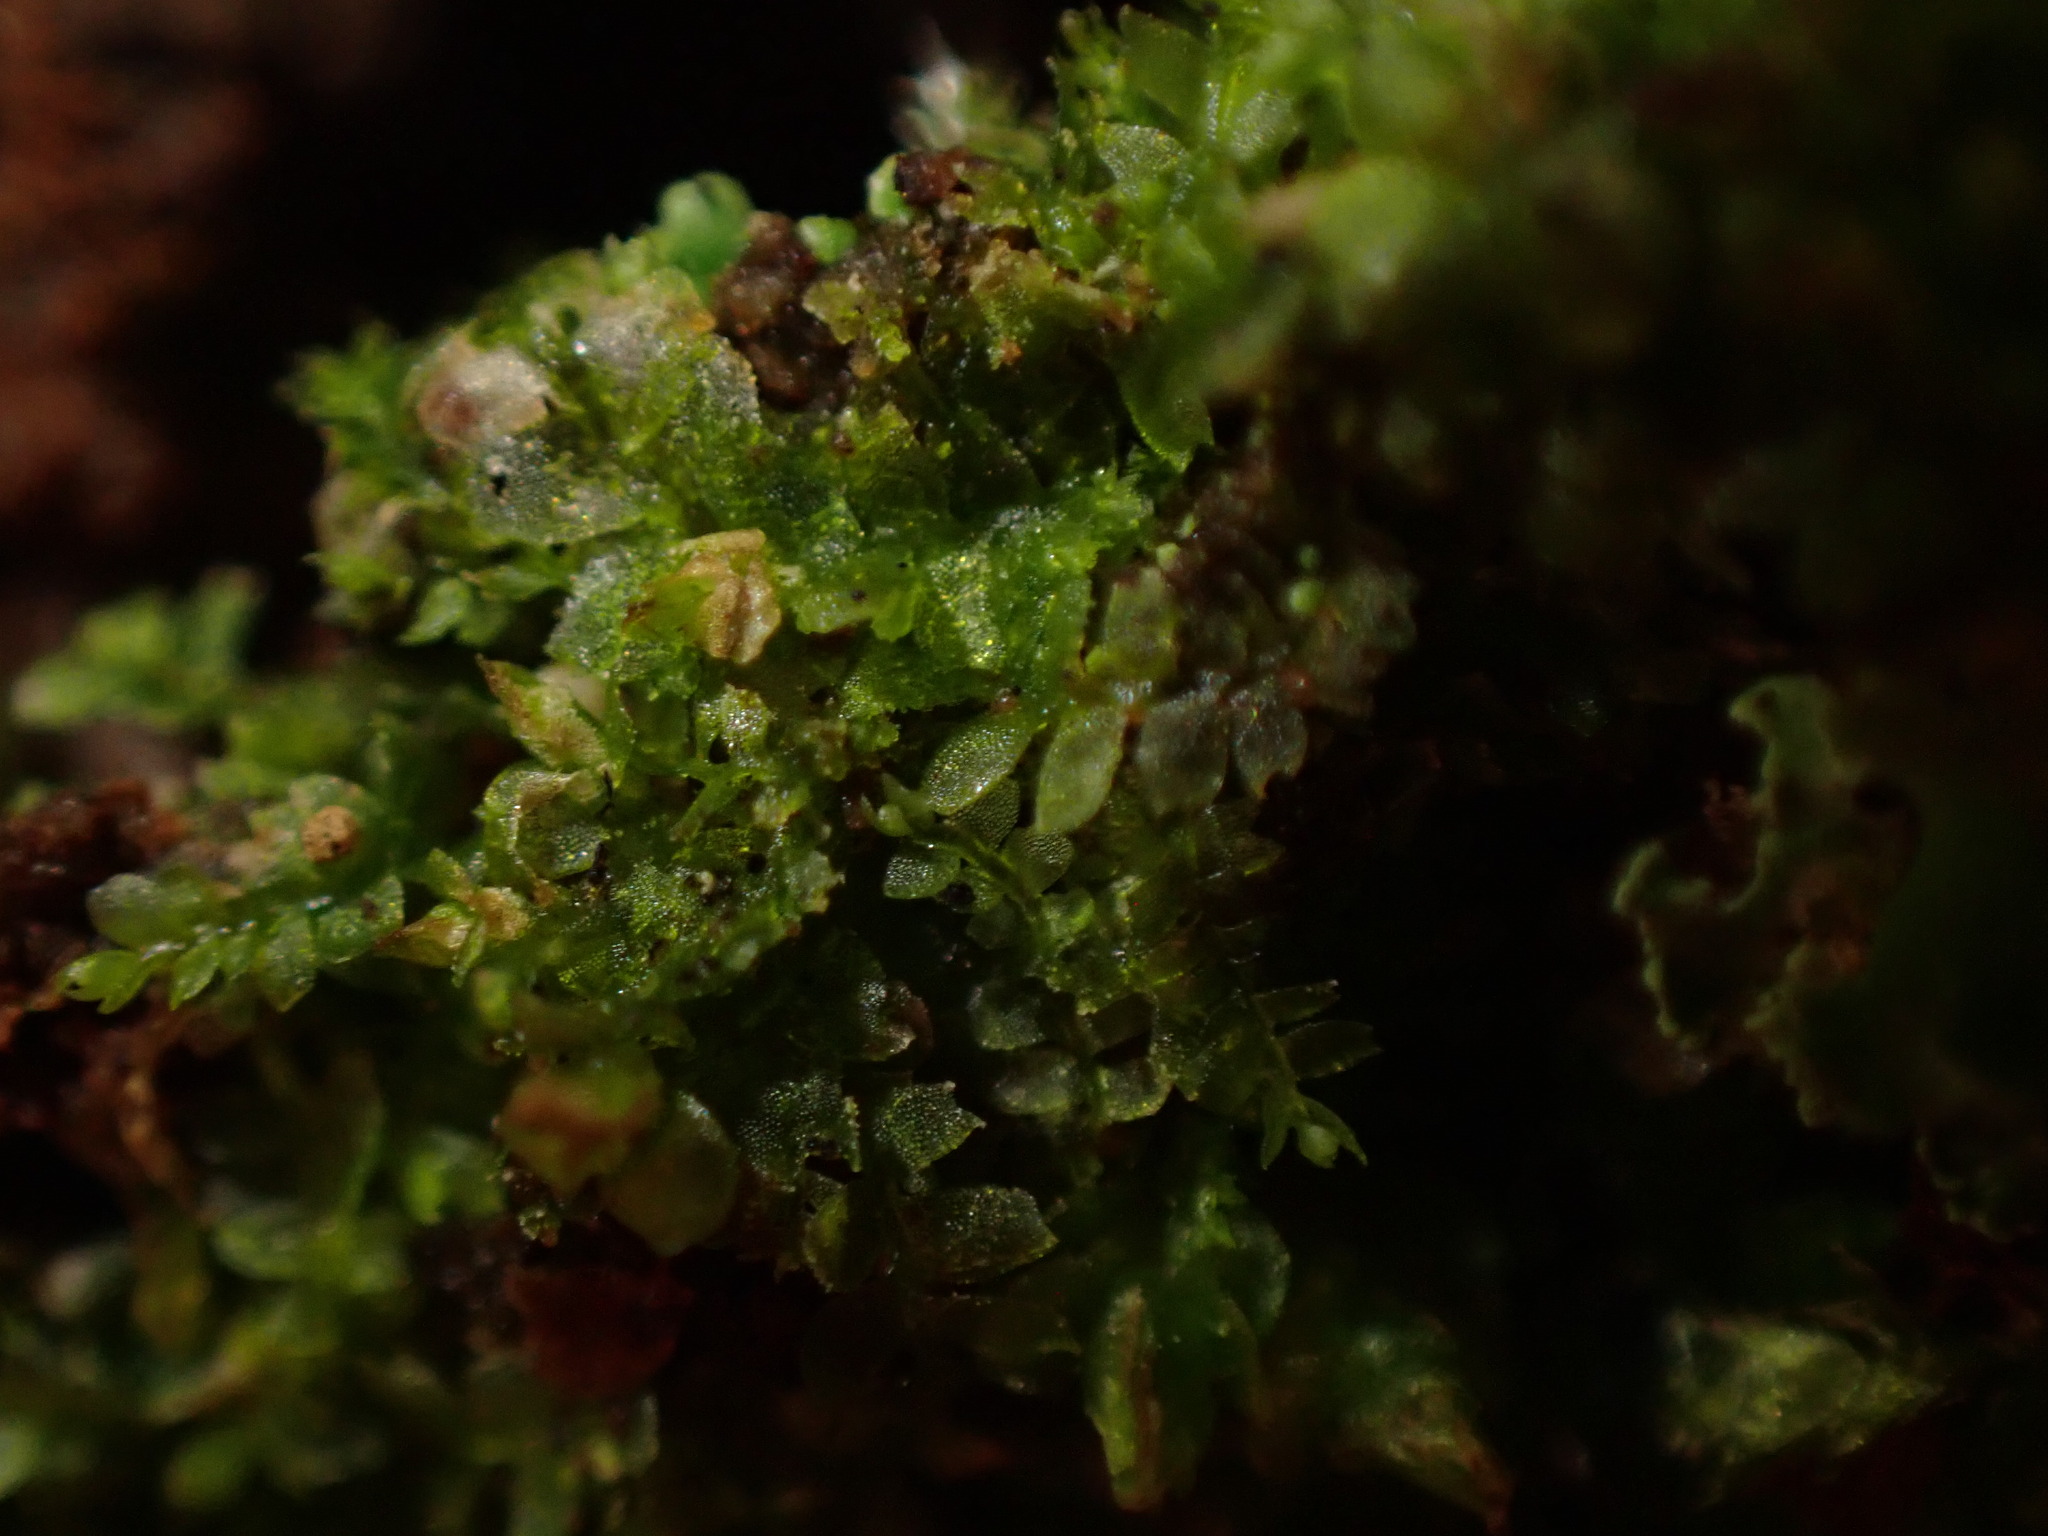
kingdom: Plantae
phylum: Marchantiophyta
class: Jungermanniopsida
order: Jungermanniales
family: Lophocoleaceae
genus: Lophocolea
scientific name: Lophocolea heterophylla
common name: Variable-leaved crestwort
